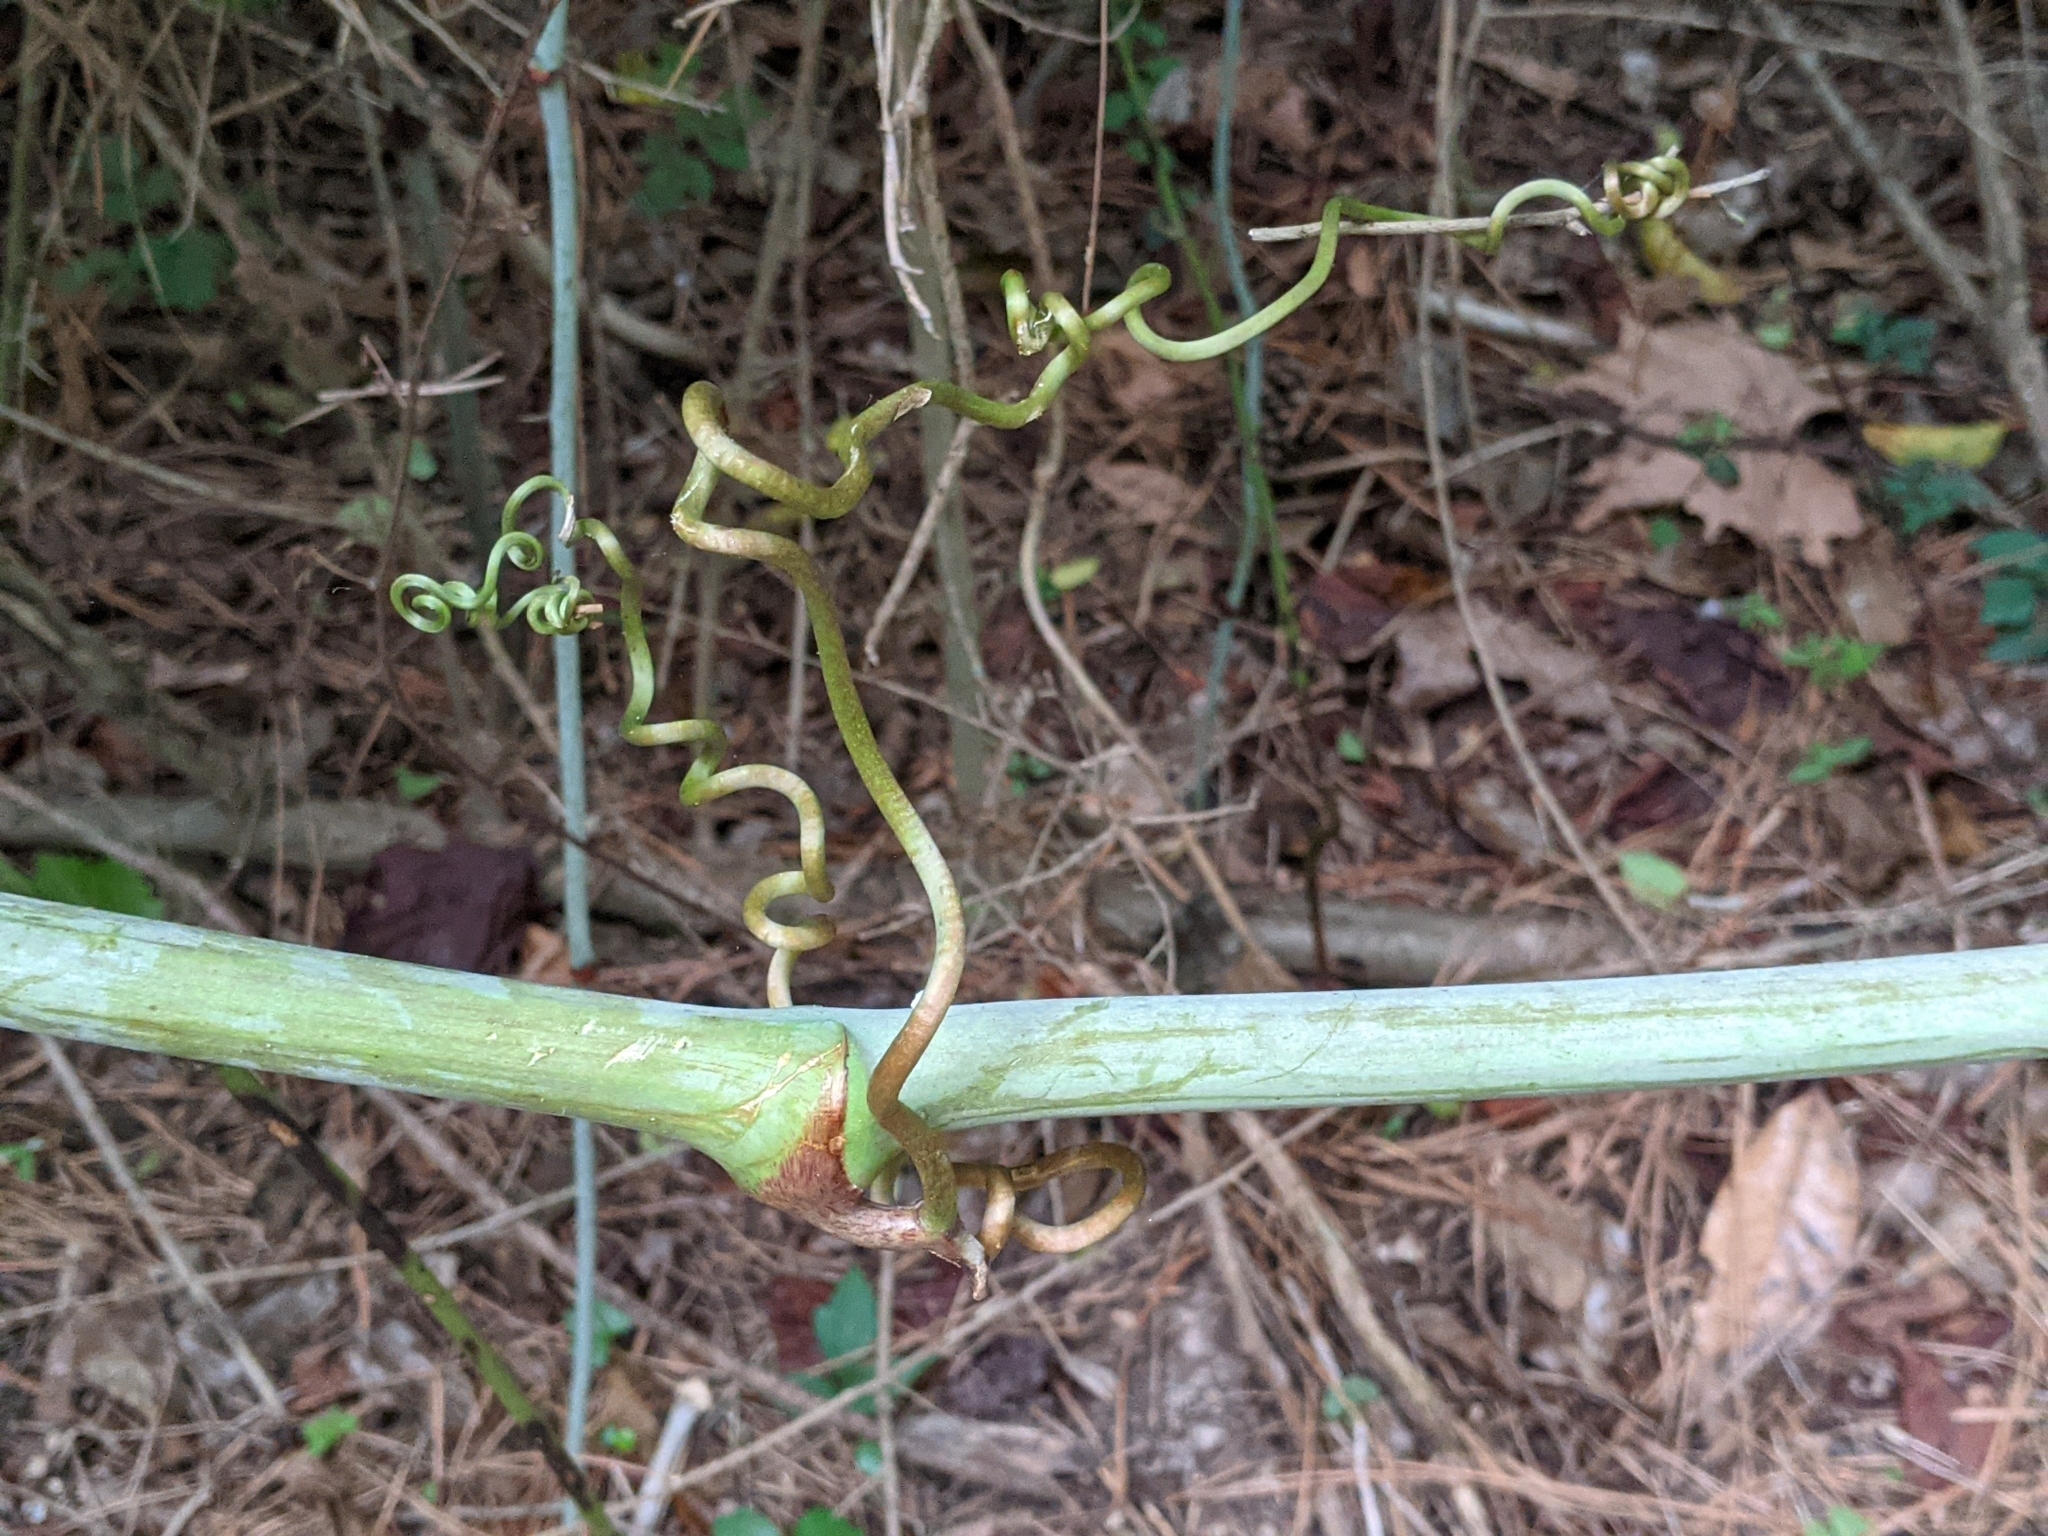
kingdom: Plantae
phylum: Tracheophyta
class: Liliopsida
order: Liliales
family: Smilacaceae
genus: Smilax
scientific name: Smilax maritima
